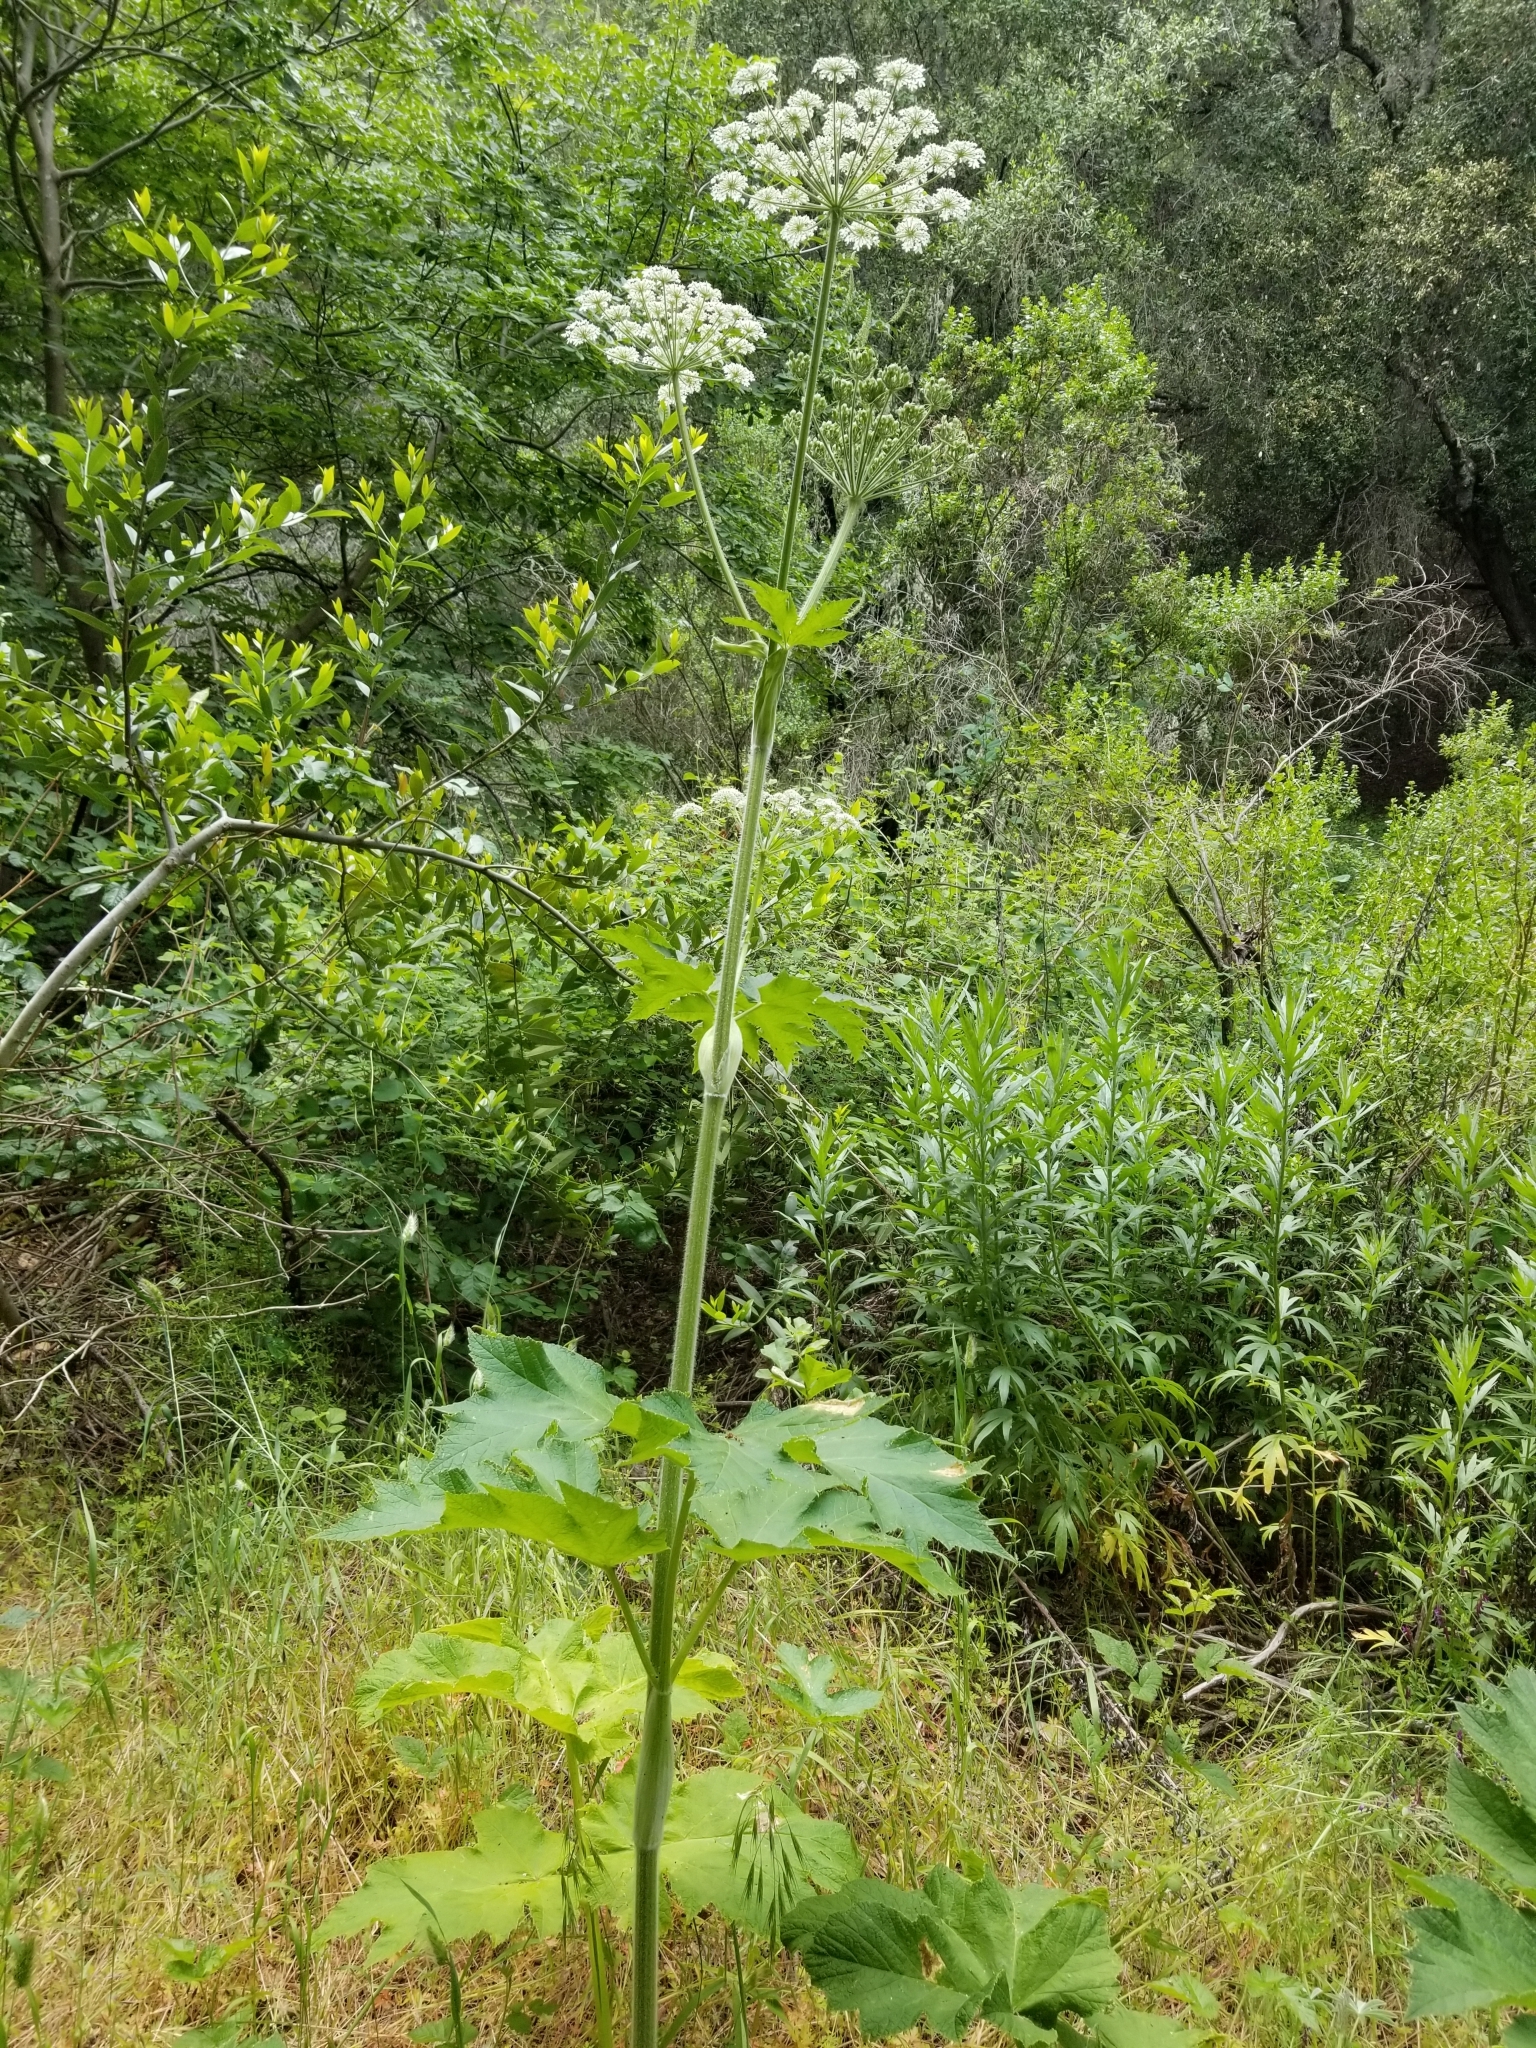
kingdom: Plantae
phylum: Tracheophyta
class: Magnoliopsida
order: Apiales
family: Apiaceae
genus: Heracleum
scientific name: Heracleum maximum
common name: American cow parsnip
